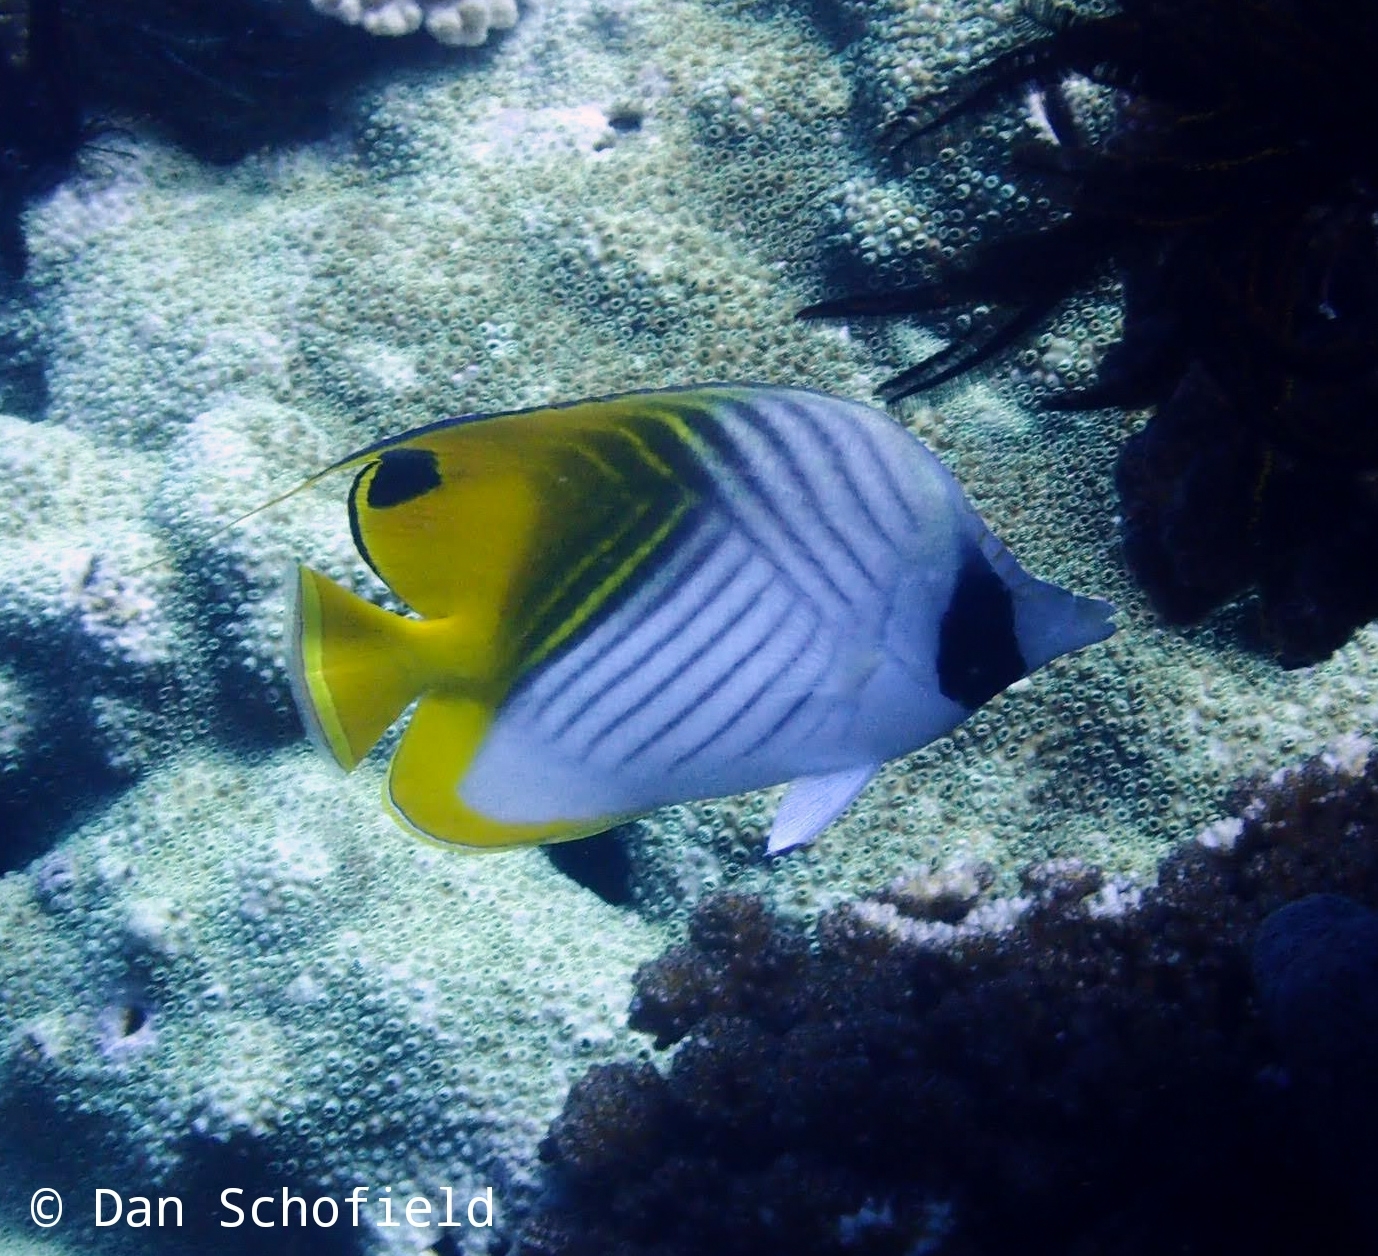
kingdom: Animalia
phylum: Chordata
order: Perciformes
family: Chaetodontidae
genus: Chaetodon
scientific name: Chaetodon auriga
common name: Threadfin butterflyfish
